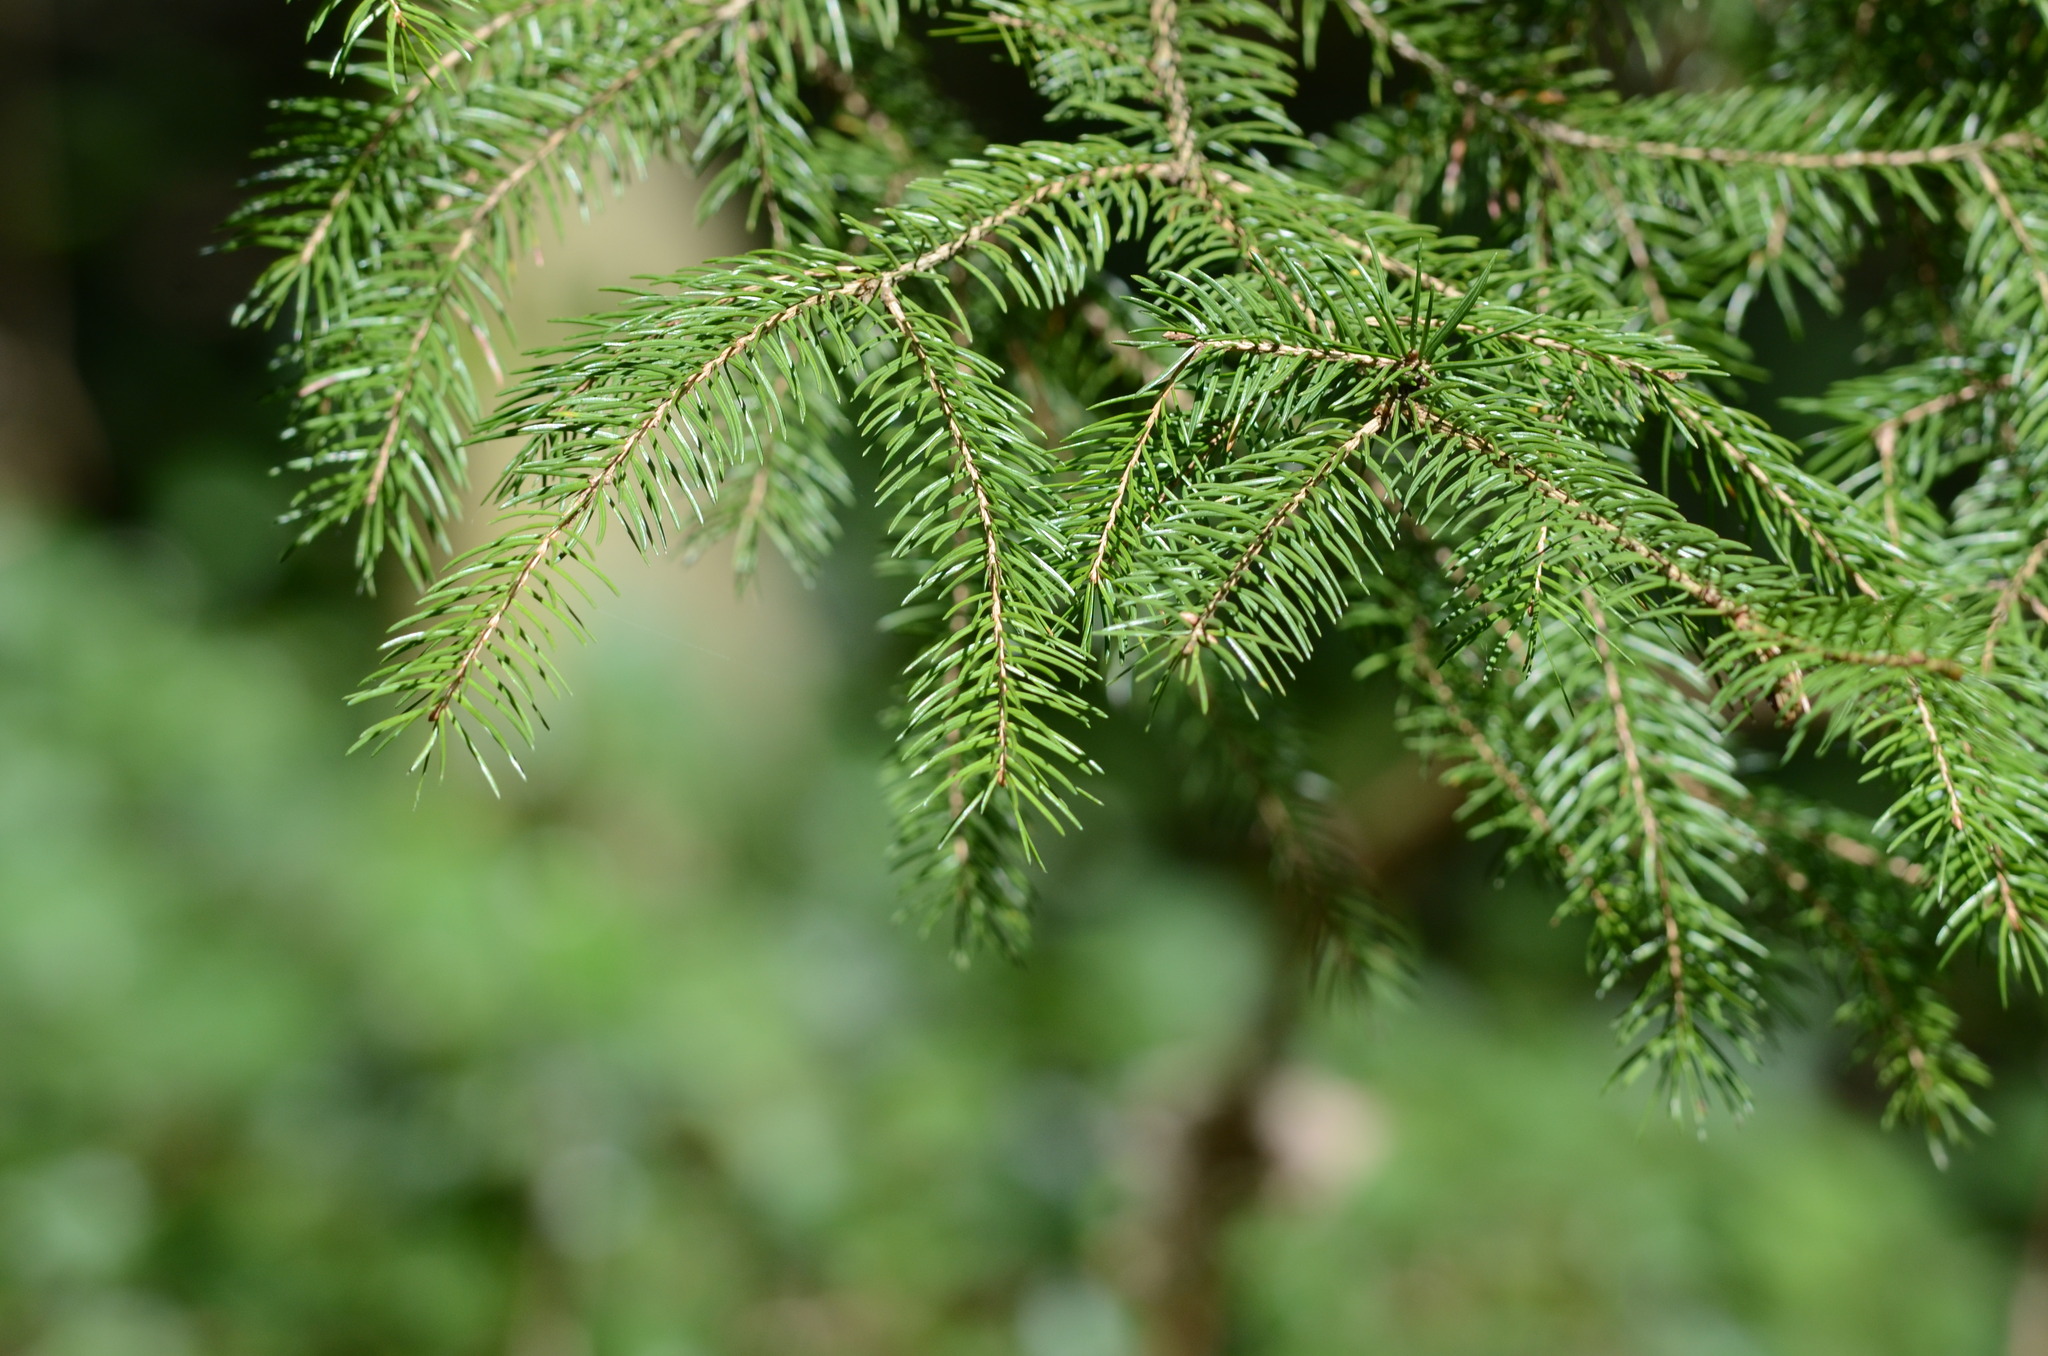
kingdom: Plantae
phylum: Tracheophyta
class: Pinopsida
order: Pinales
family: Pinaceae
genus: Picea
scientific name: Picea abies
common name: Norway spruce
